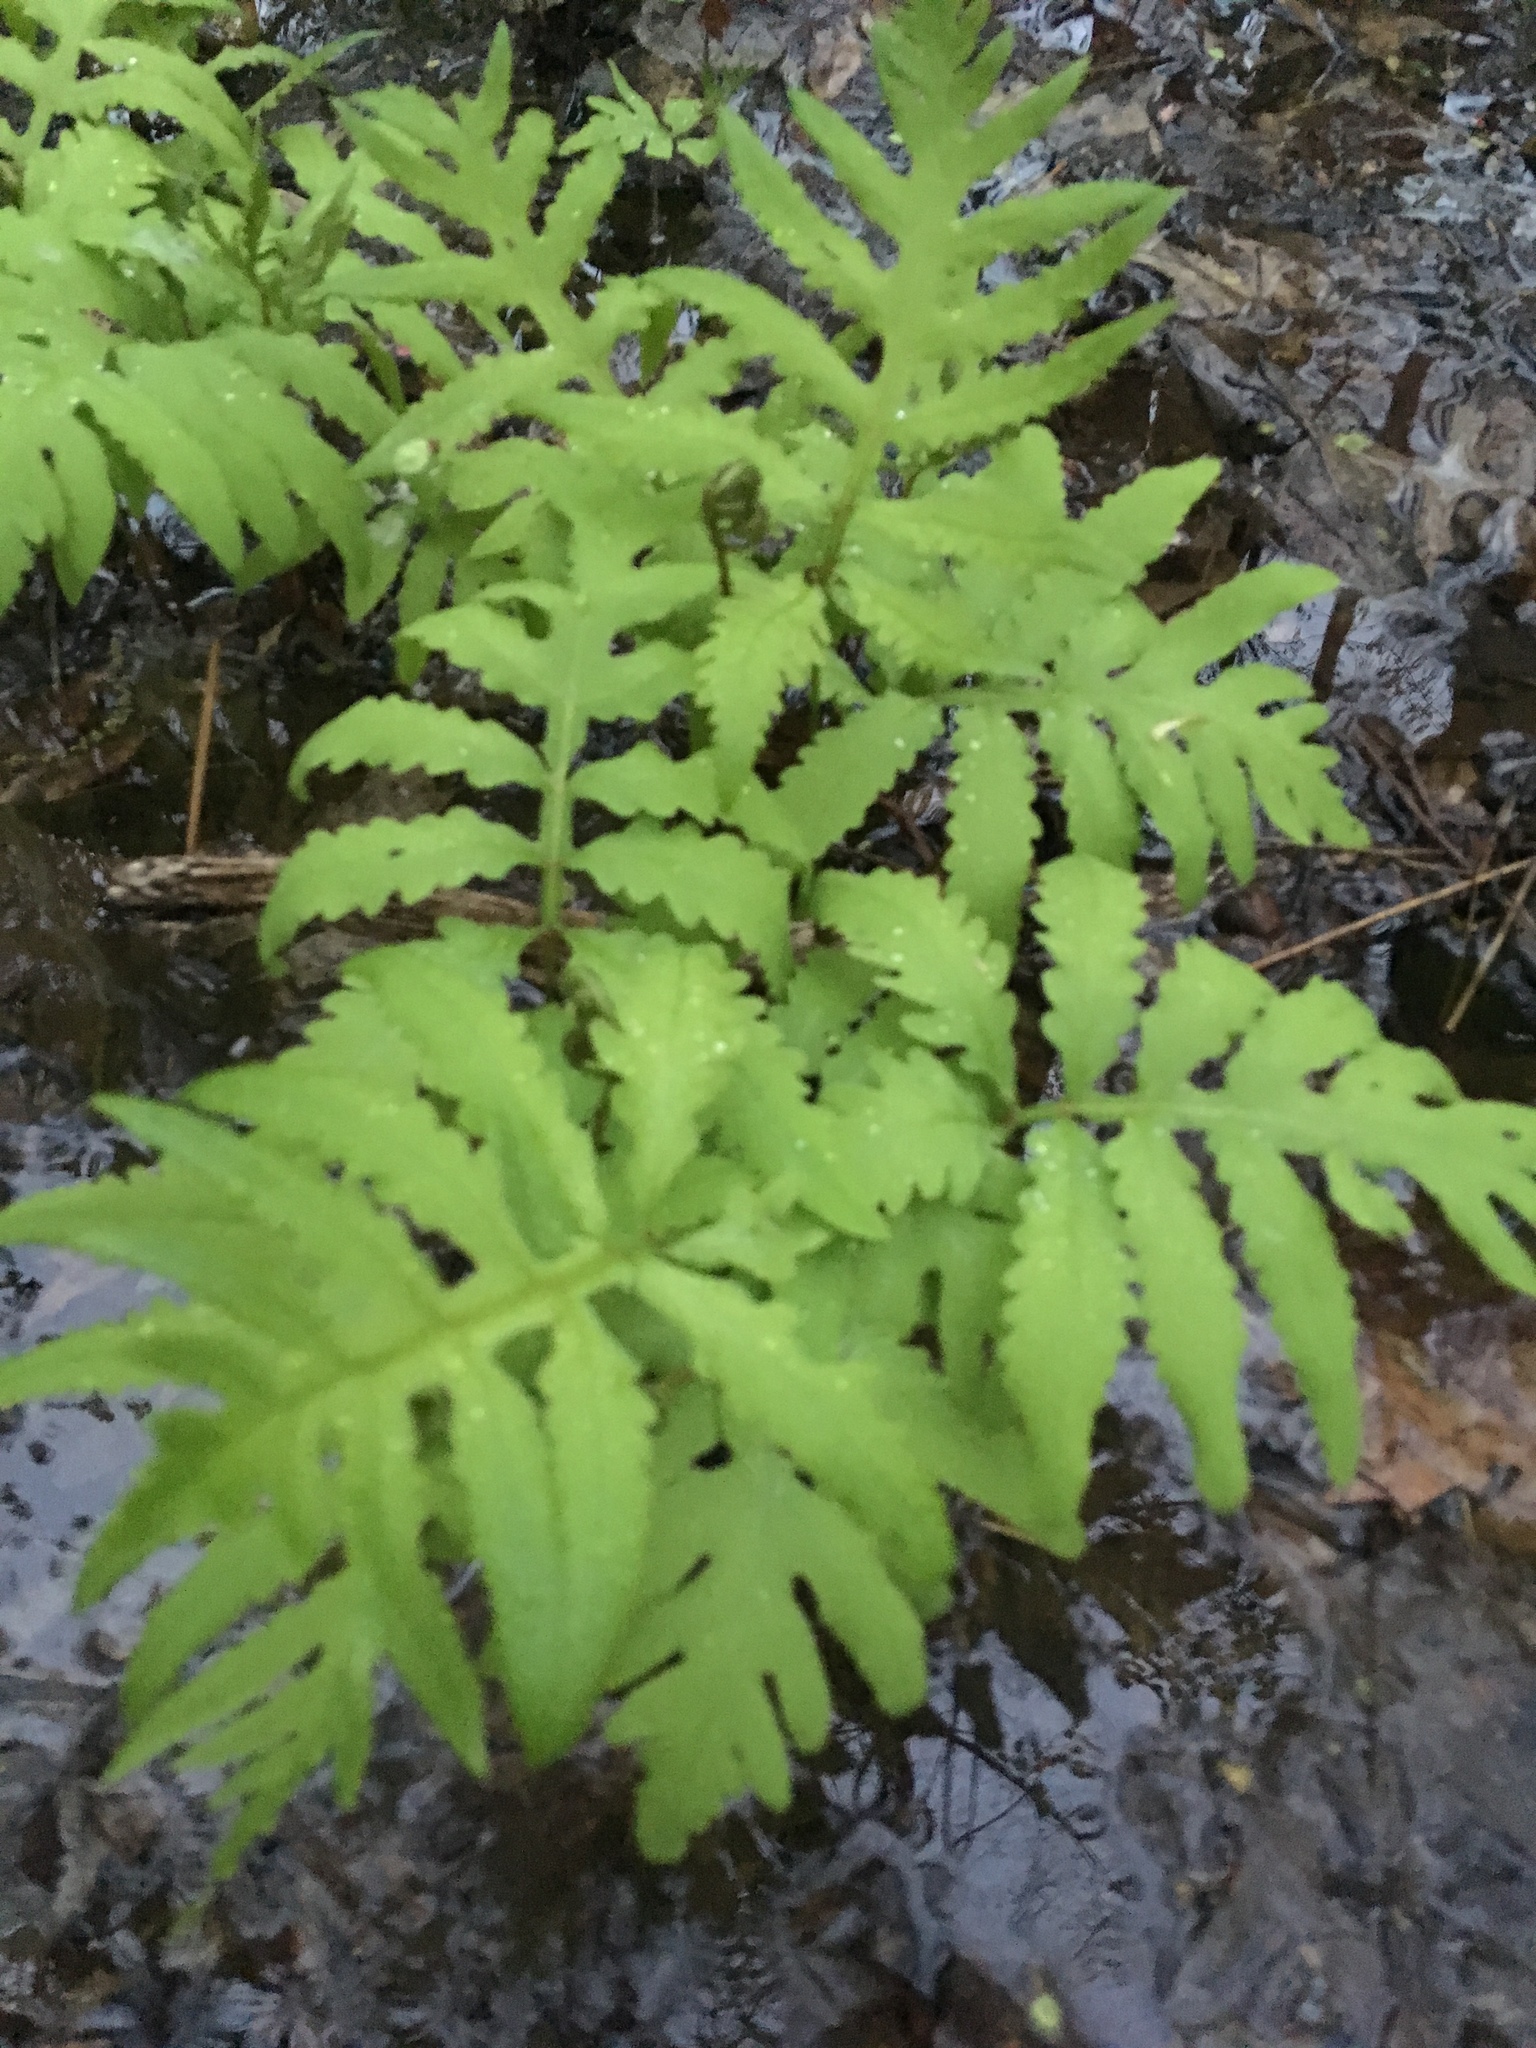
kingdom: Plantae
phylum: Tracheophyta
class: Polypodiopsida
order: Polypodiales
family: Onocleaceae
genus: Onoclea
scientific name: Onoclea sensibilis
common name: Sensitive fern
